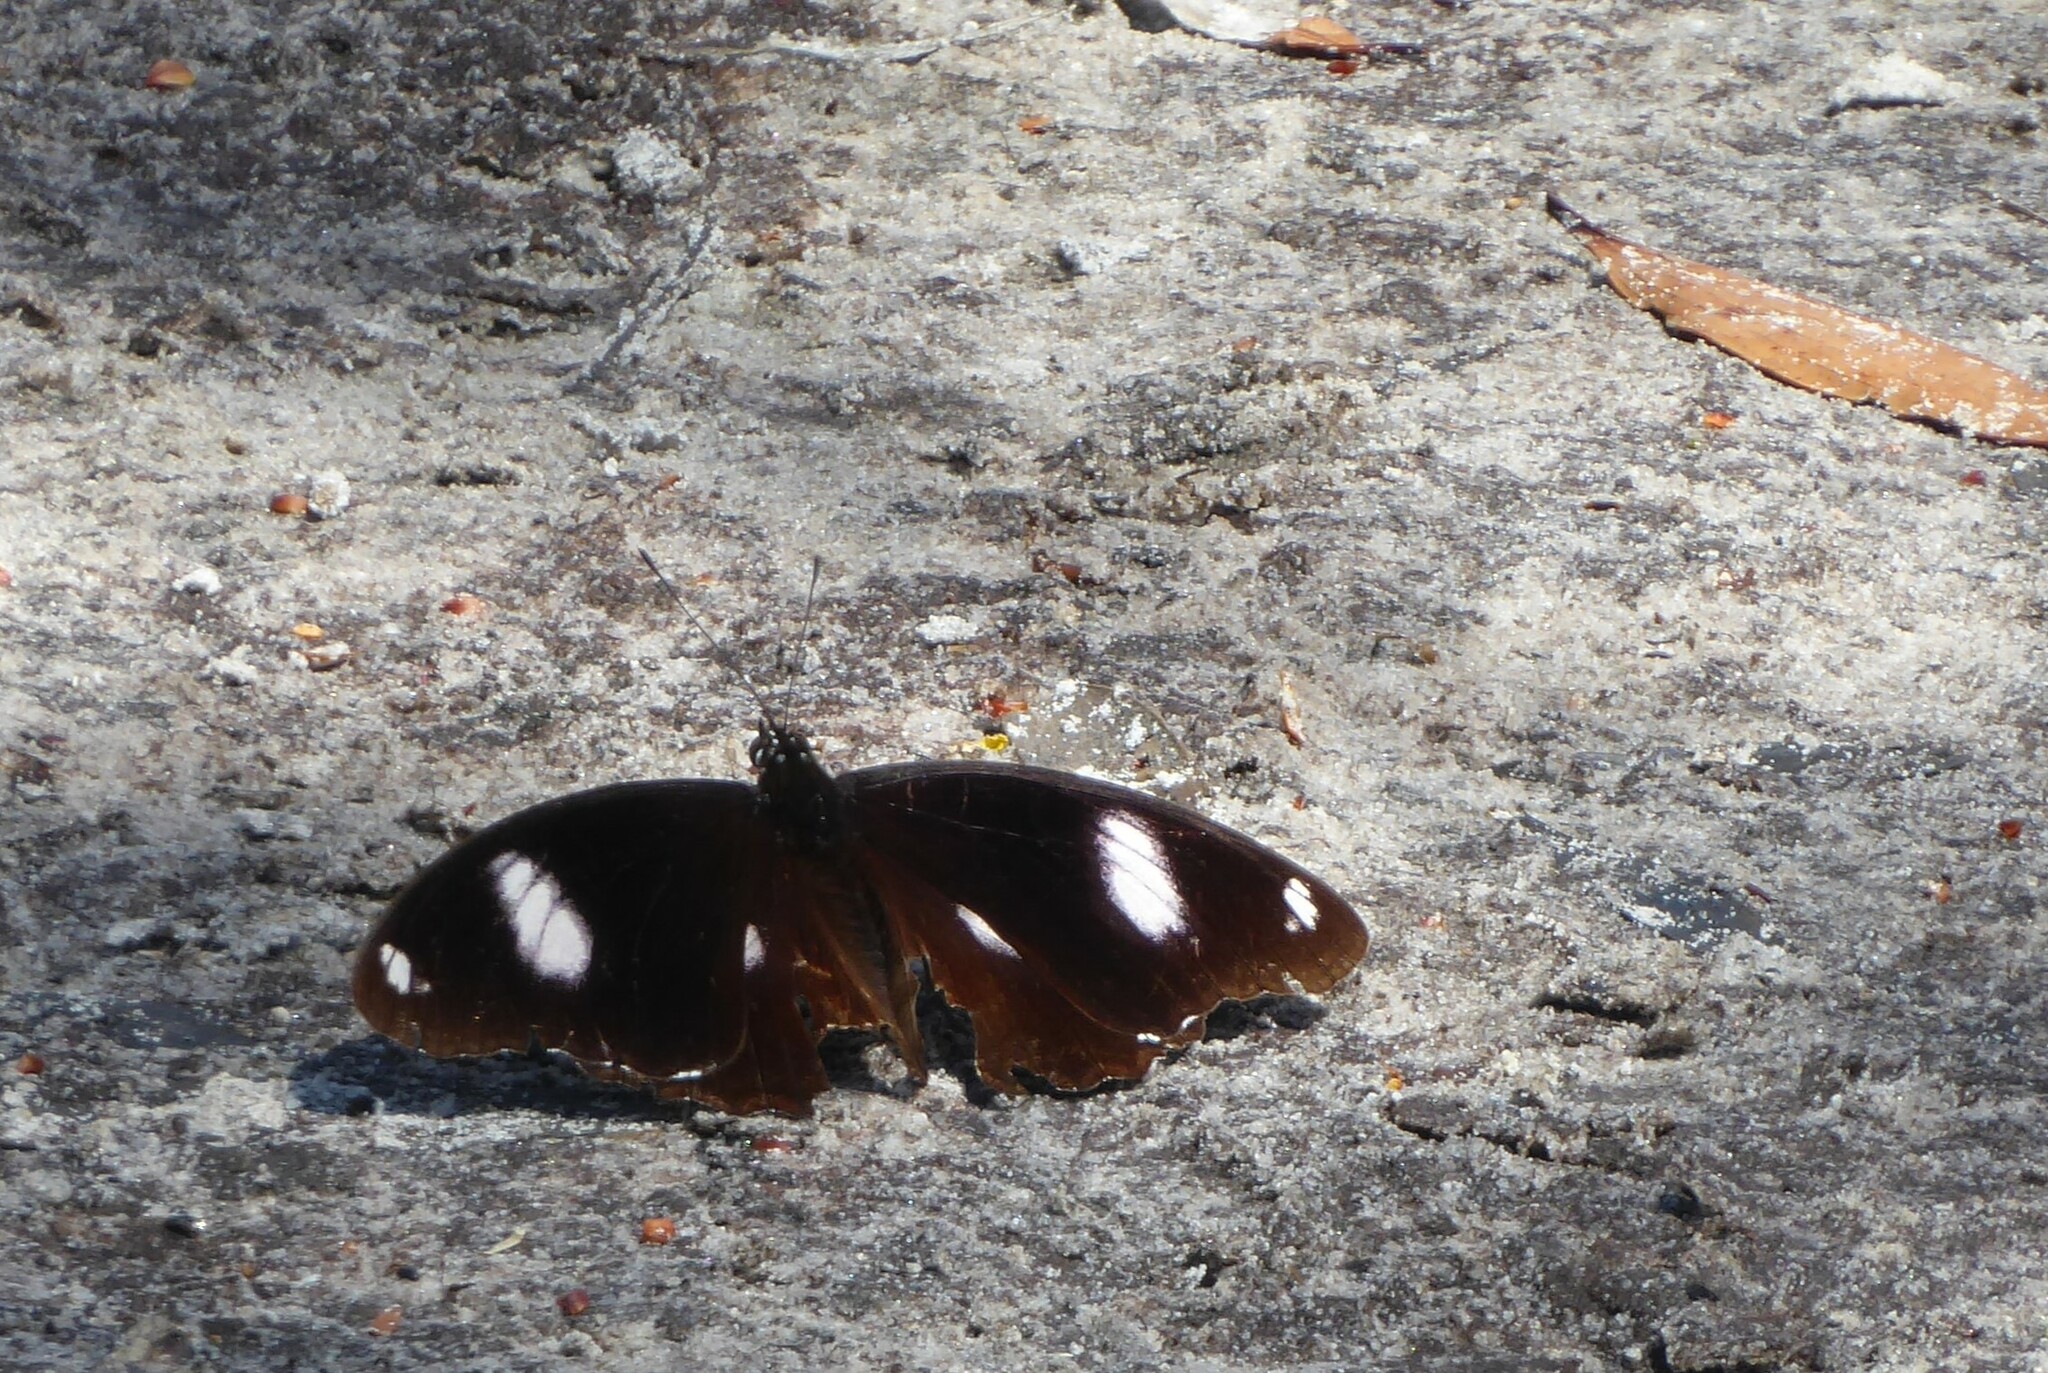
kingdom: Animalia
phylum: Arthropoda
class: Insecta
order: Lepidoptera
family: Nymphalidae
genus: Hypolimnas
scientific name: Hypolimnas bolina
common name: Great eggfly
